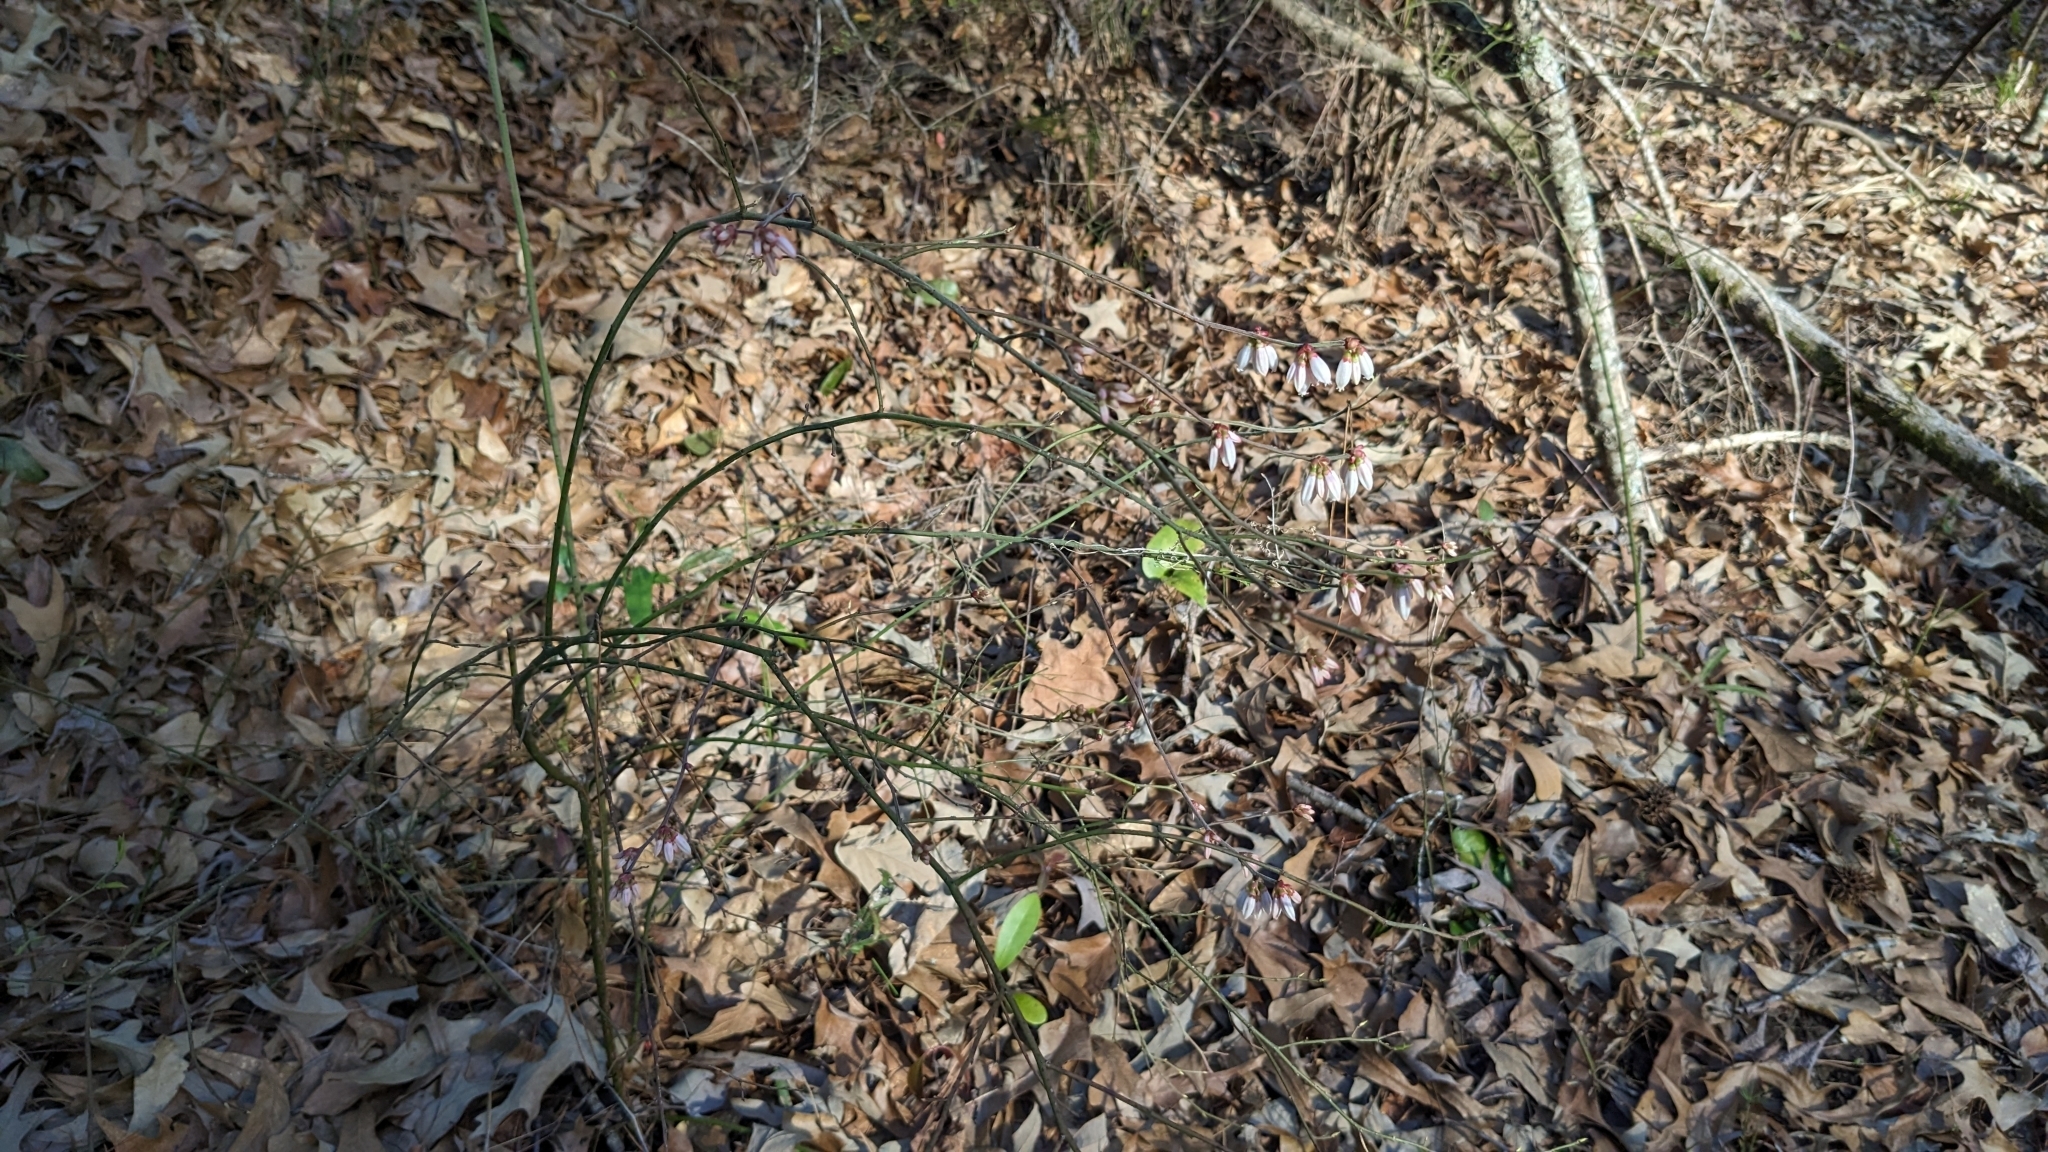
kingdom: Plantae
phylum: Tracheophyta
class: Magnoliopsida
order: Ericales
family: Ericaceae
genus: Vaccinium
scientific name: Vaccinium corymbosum
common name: Blueberry
